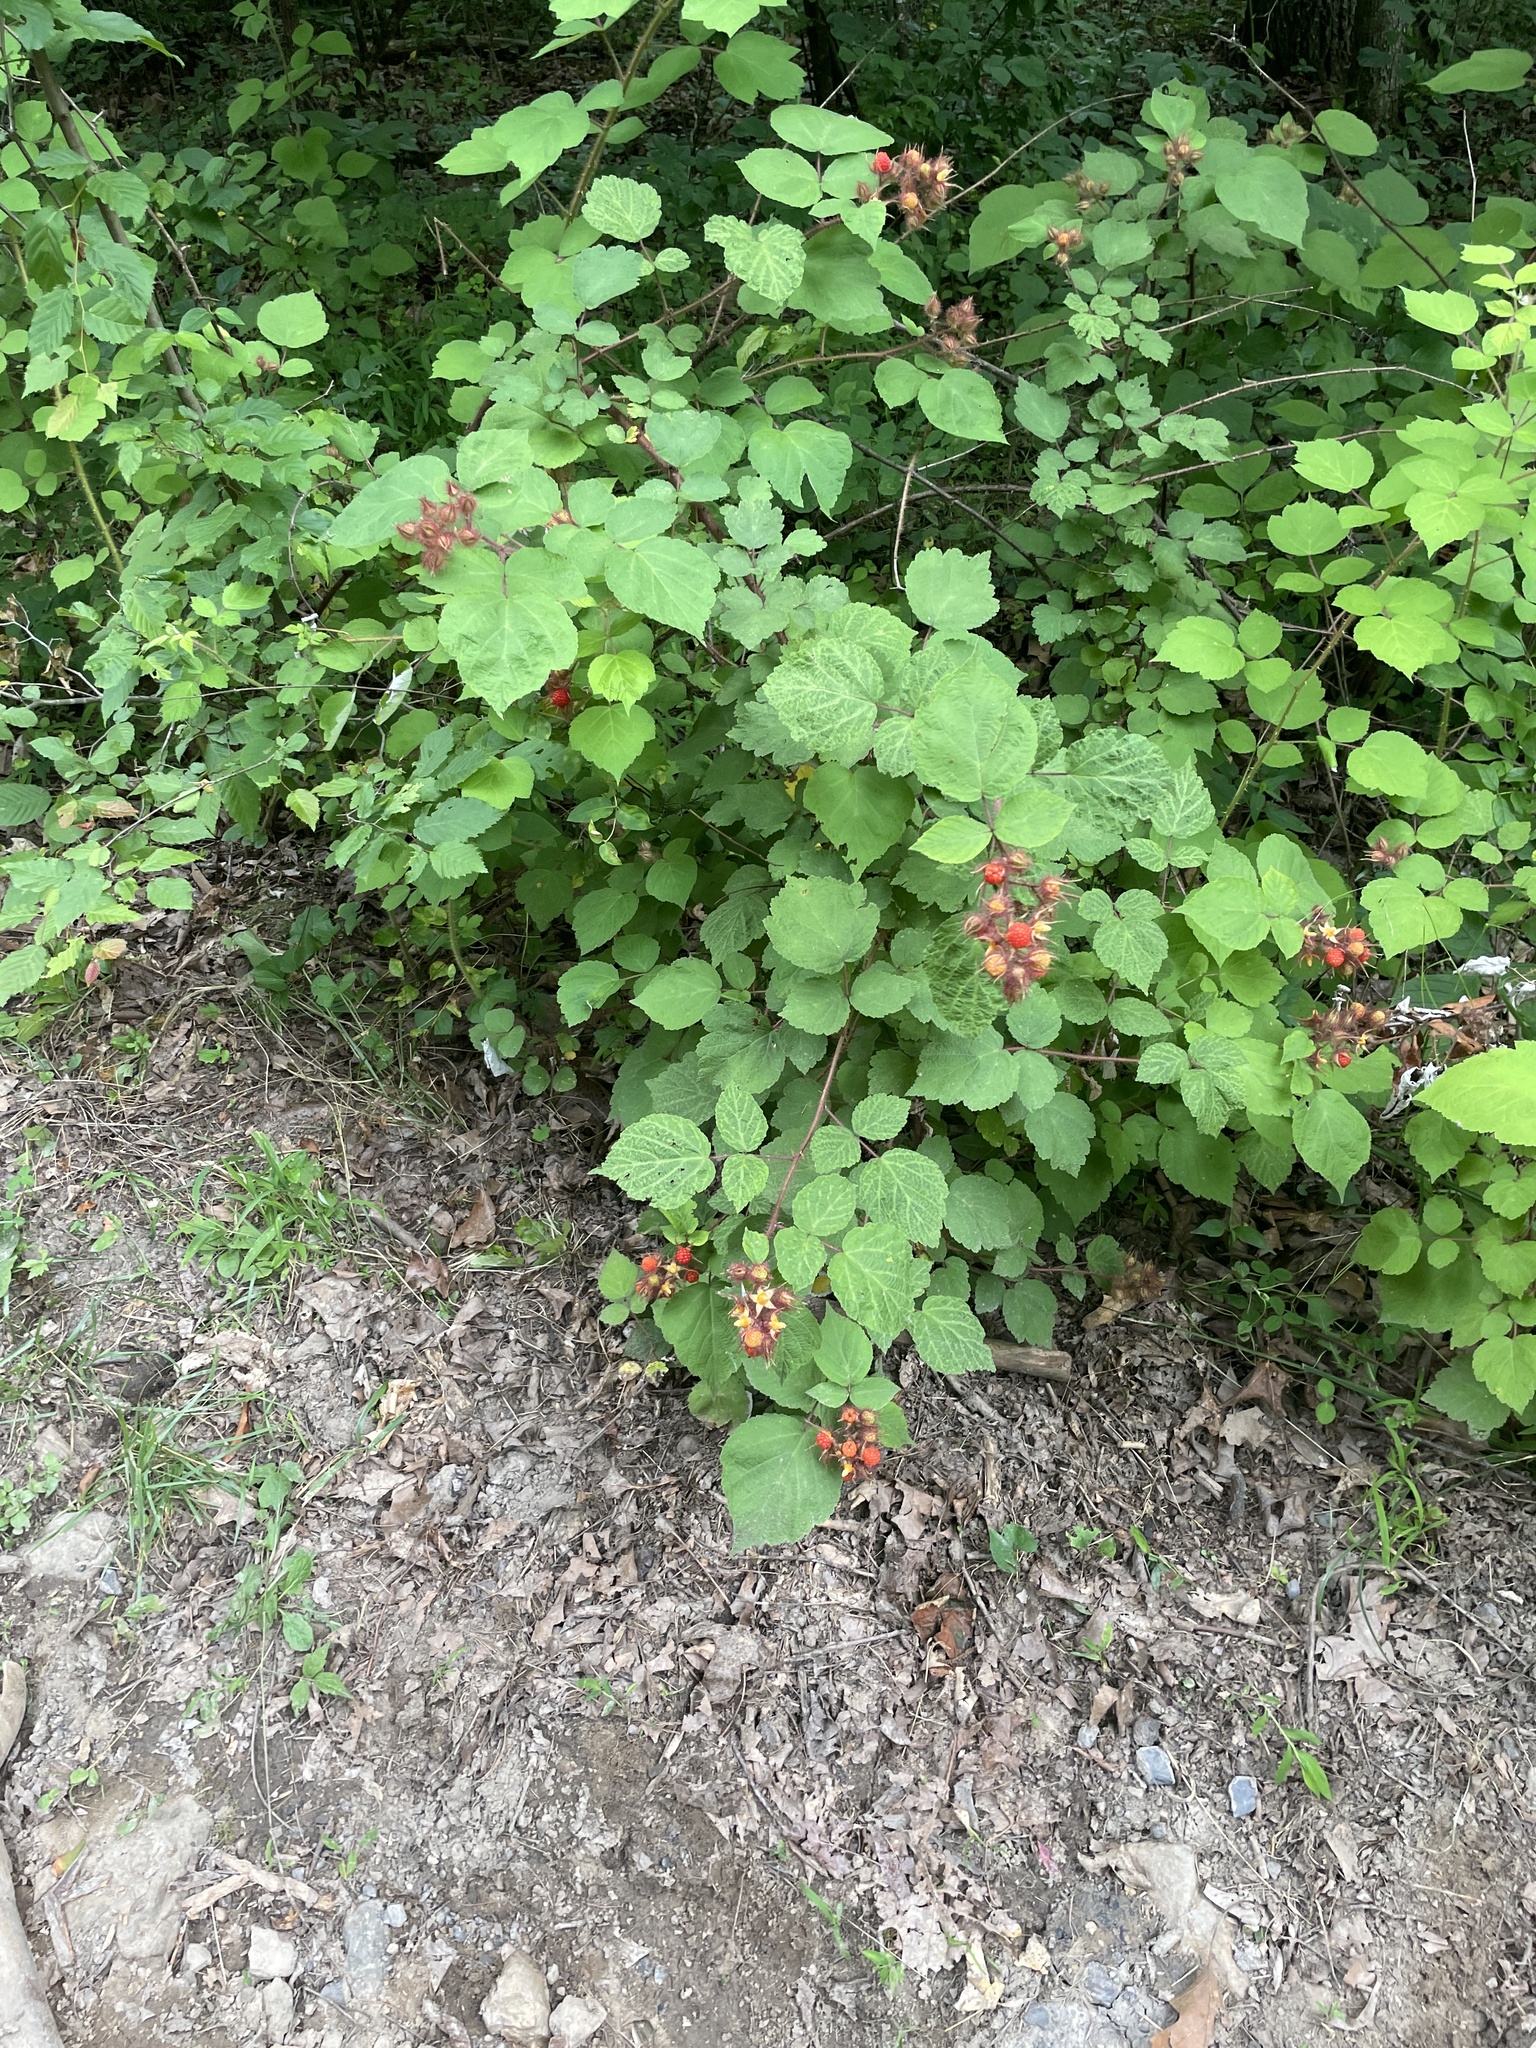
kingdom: Plantae
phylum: Tracheophyta
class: Magnoliopsida
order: Rosales
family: Rosaceae
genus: Rubus
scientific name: Rubus phoenicolasius
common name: Japanese wineberry
